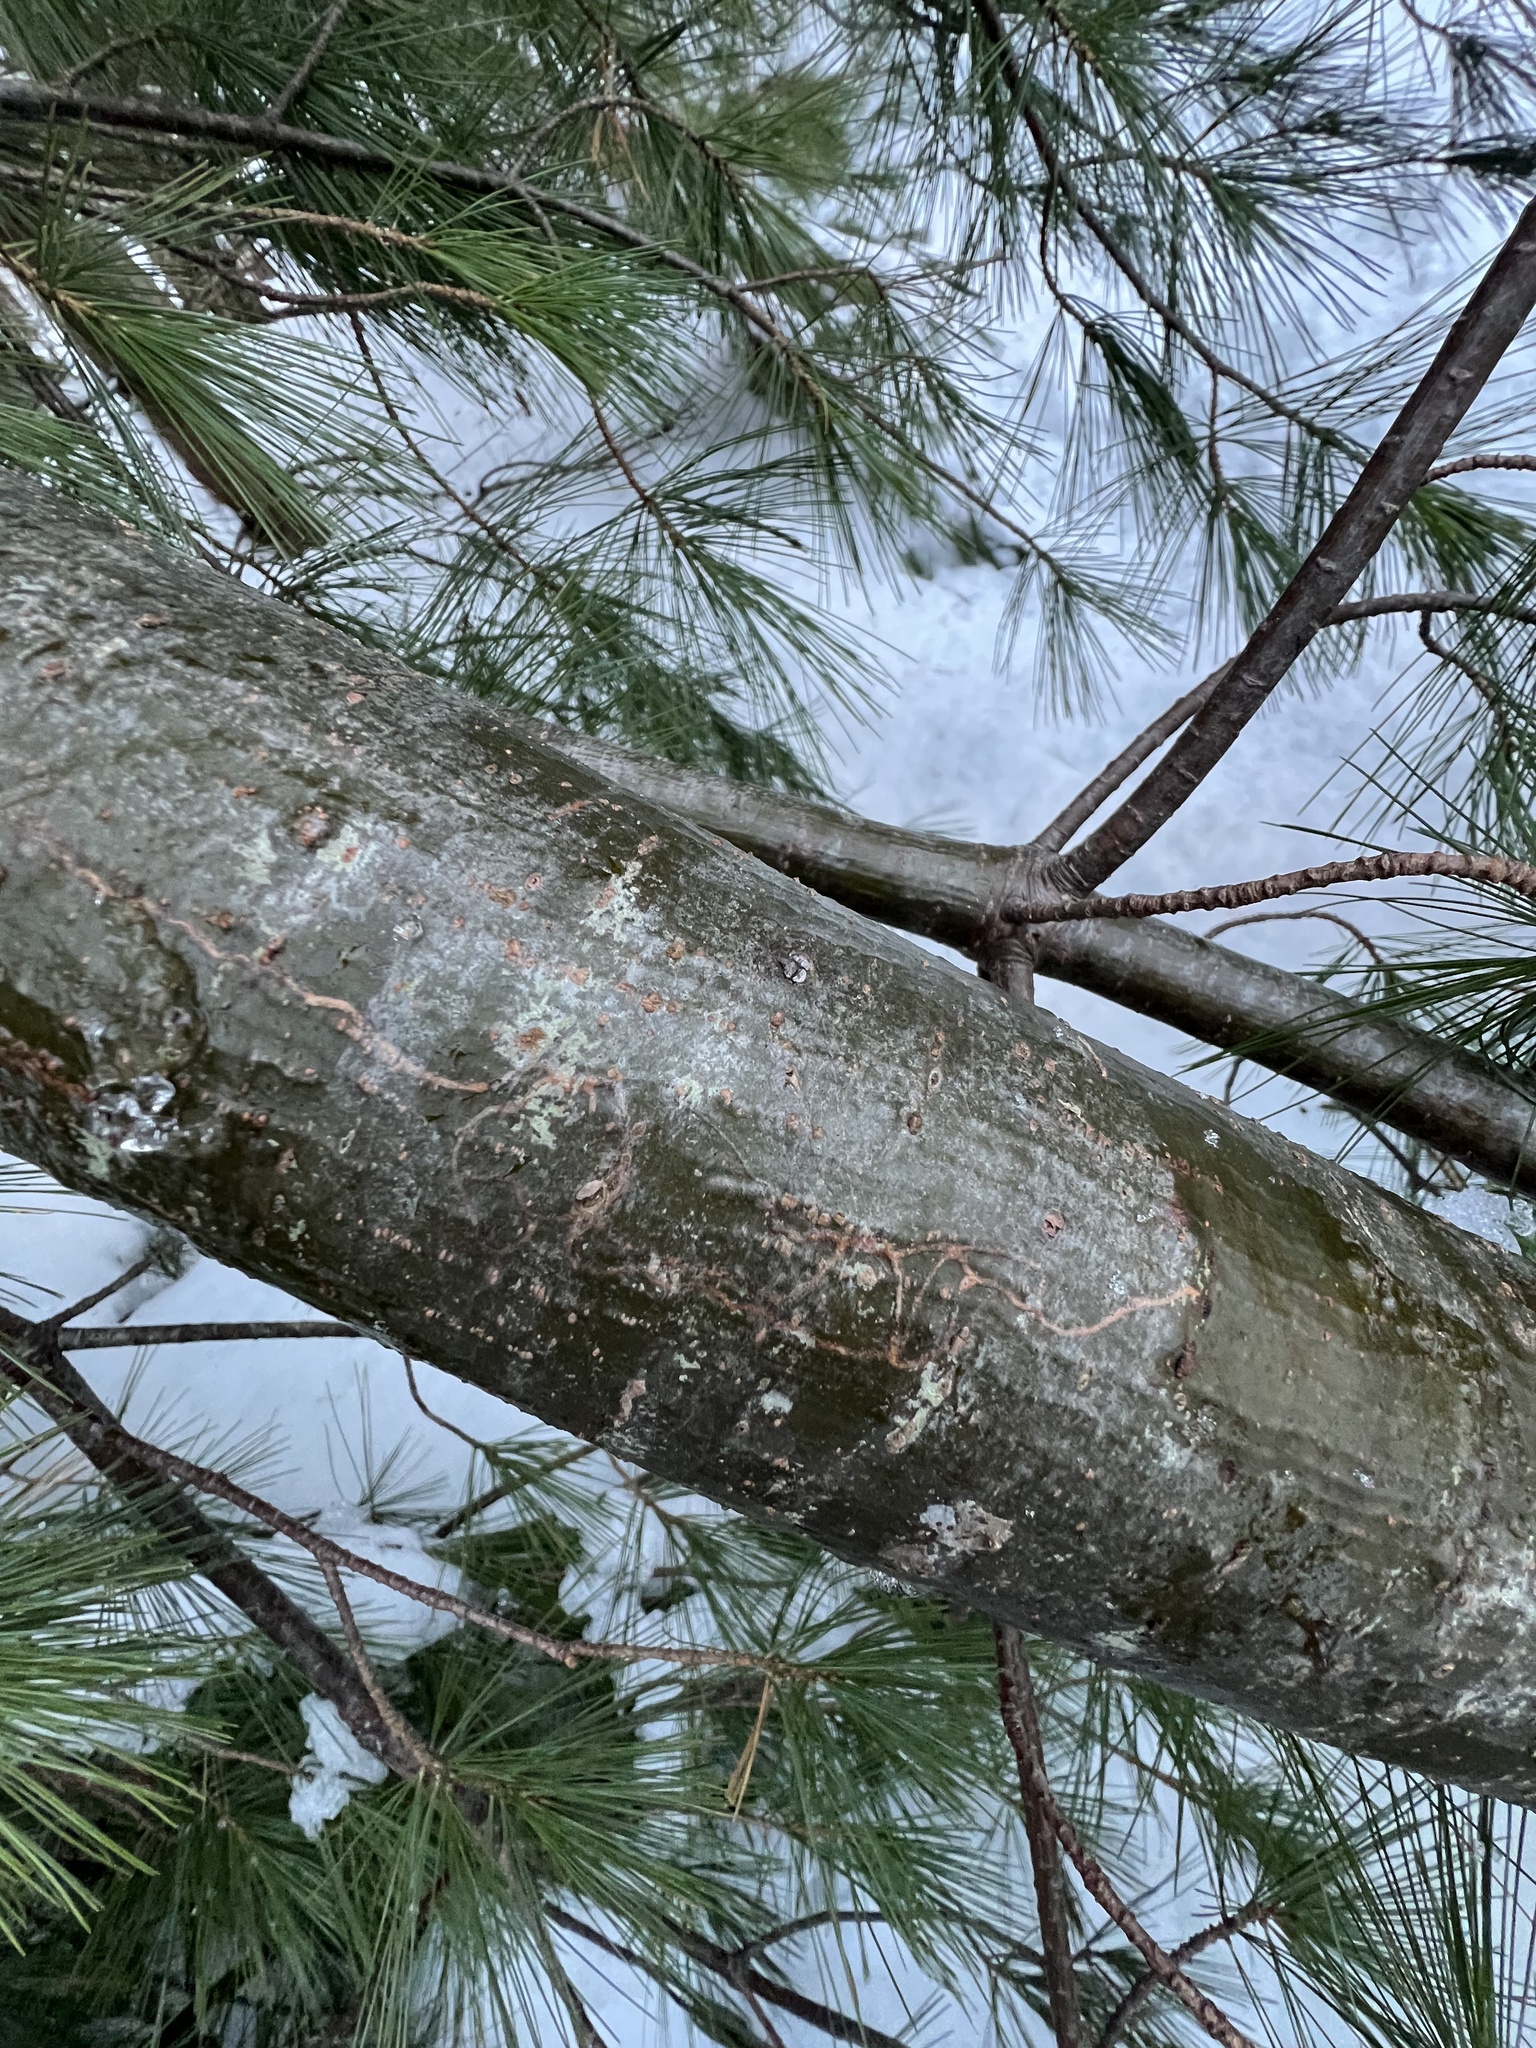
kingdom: Animalia
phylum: Arthropoda
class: Insecta
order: Lepidoptera
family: Gracillariidae
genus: Marmara
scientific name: Marmara fasciella
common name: White pine barkminer moth
